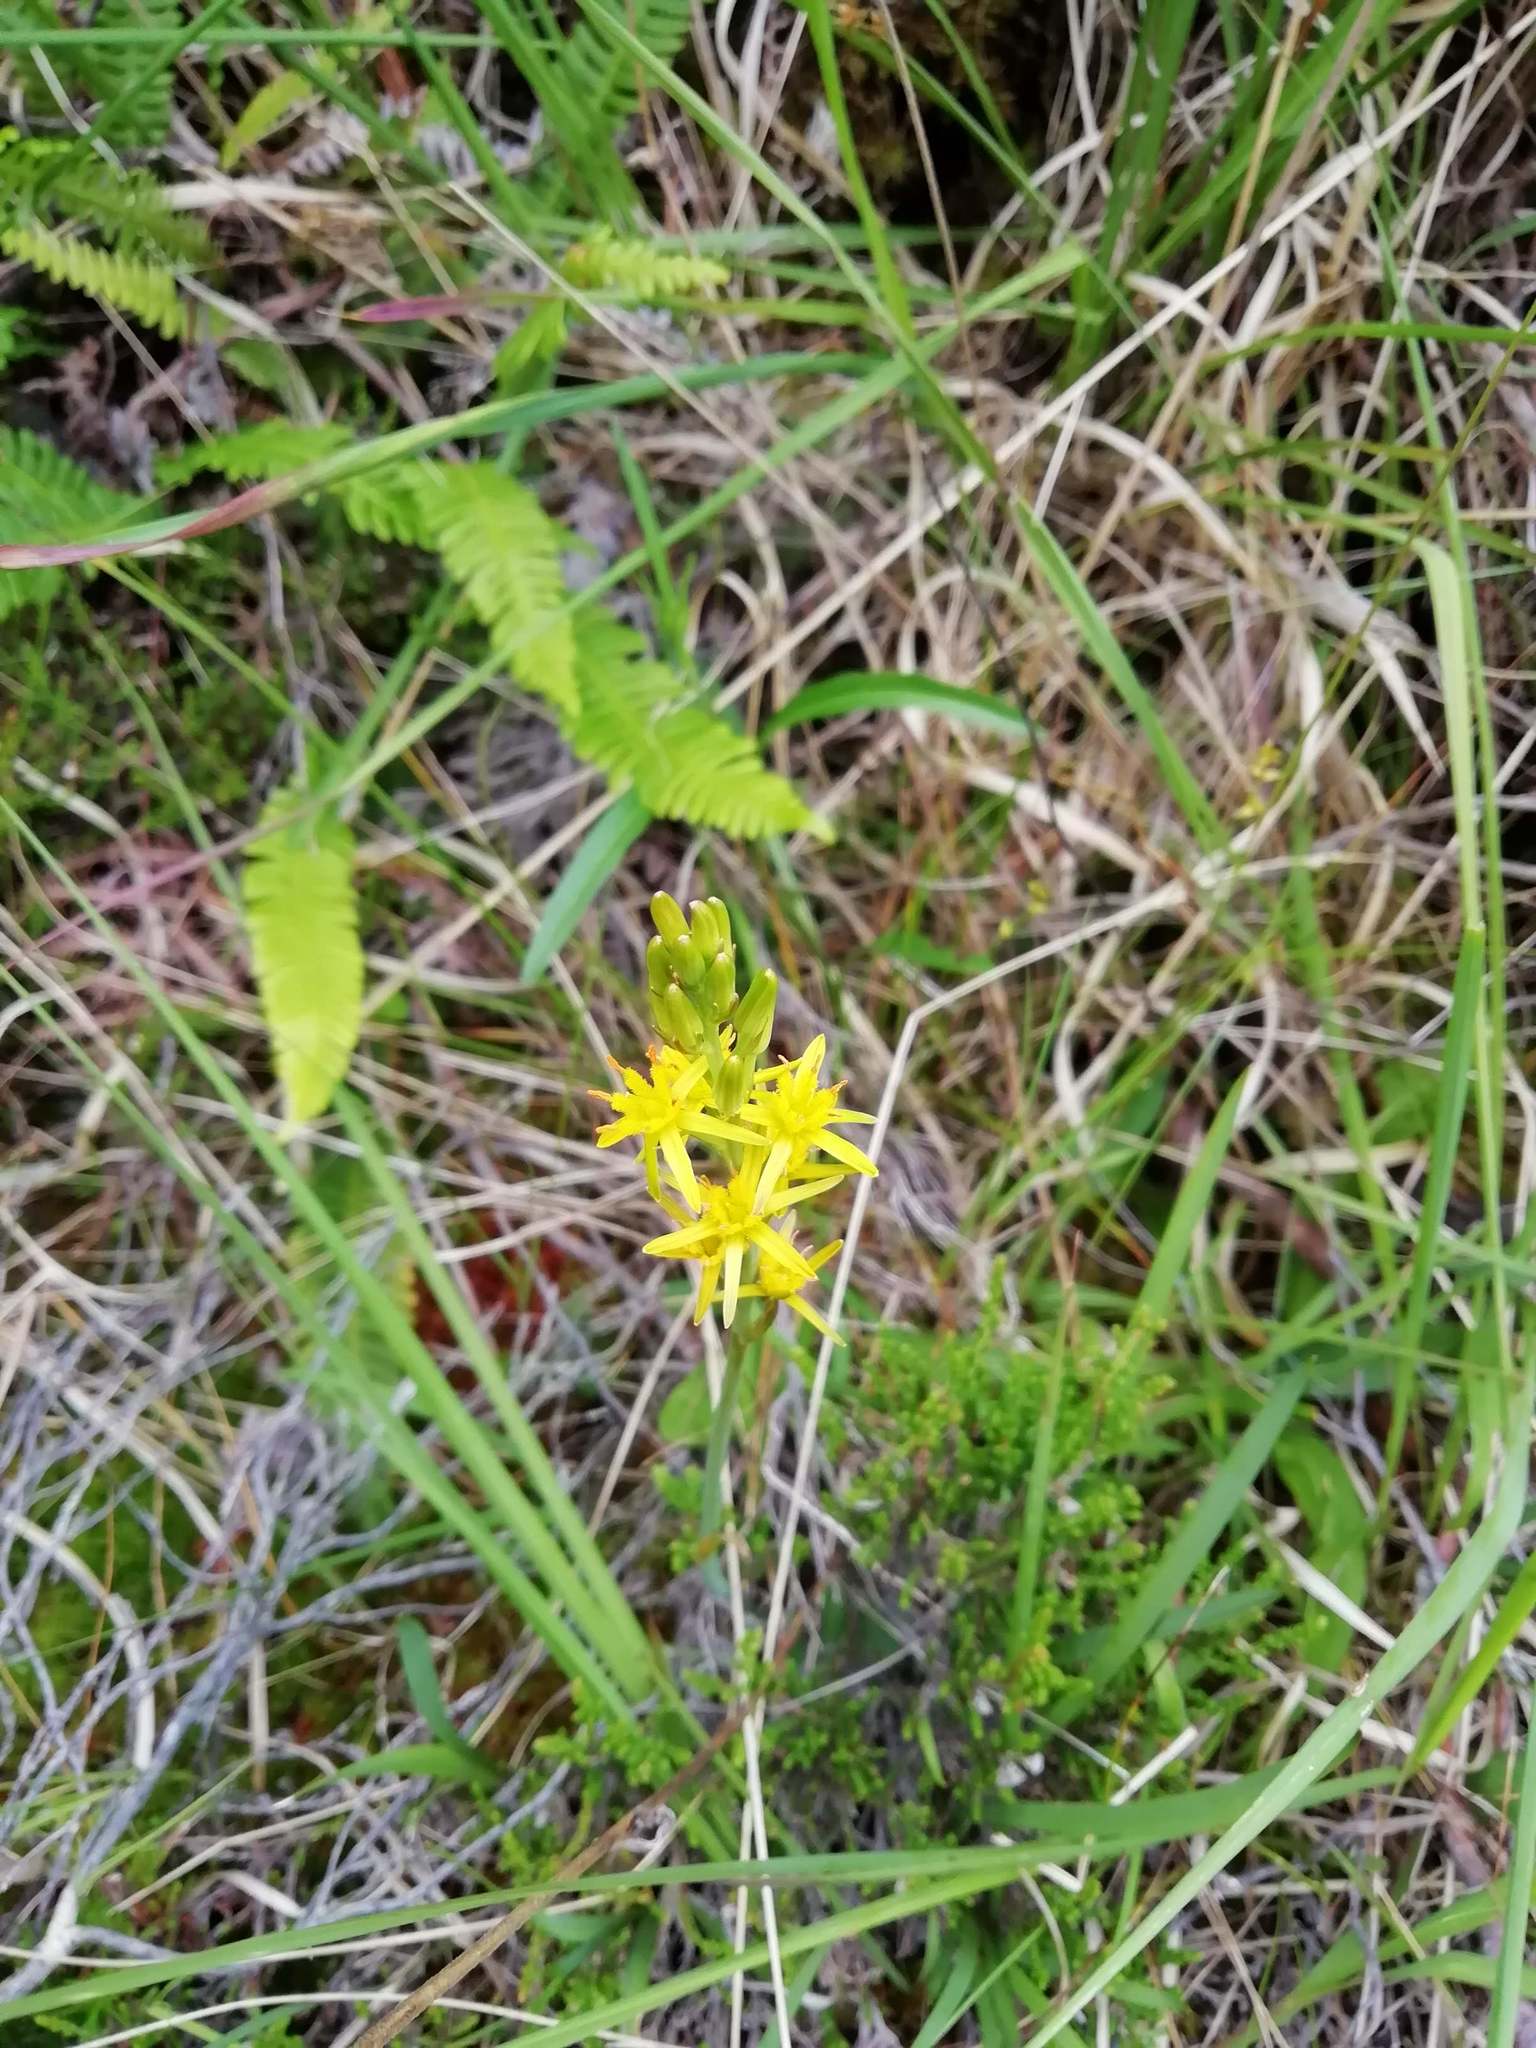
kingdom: Plantae
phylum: Tracheophyta
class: Liliopsida
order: Dioscoreales
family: Nartheciaceae
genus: Narthecium
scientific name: Narthecium ossifragum
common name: Bog asphodel
